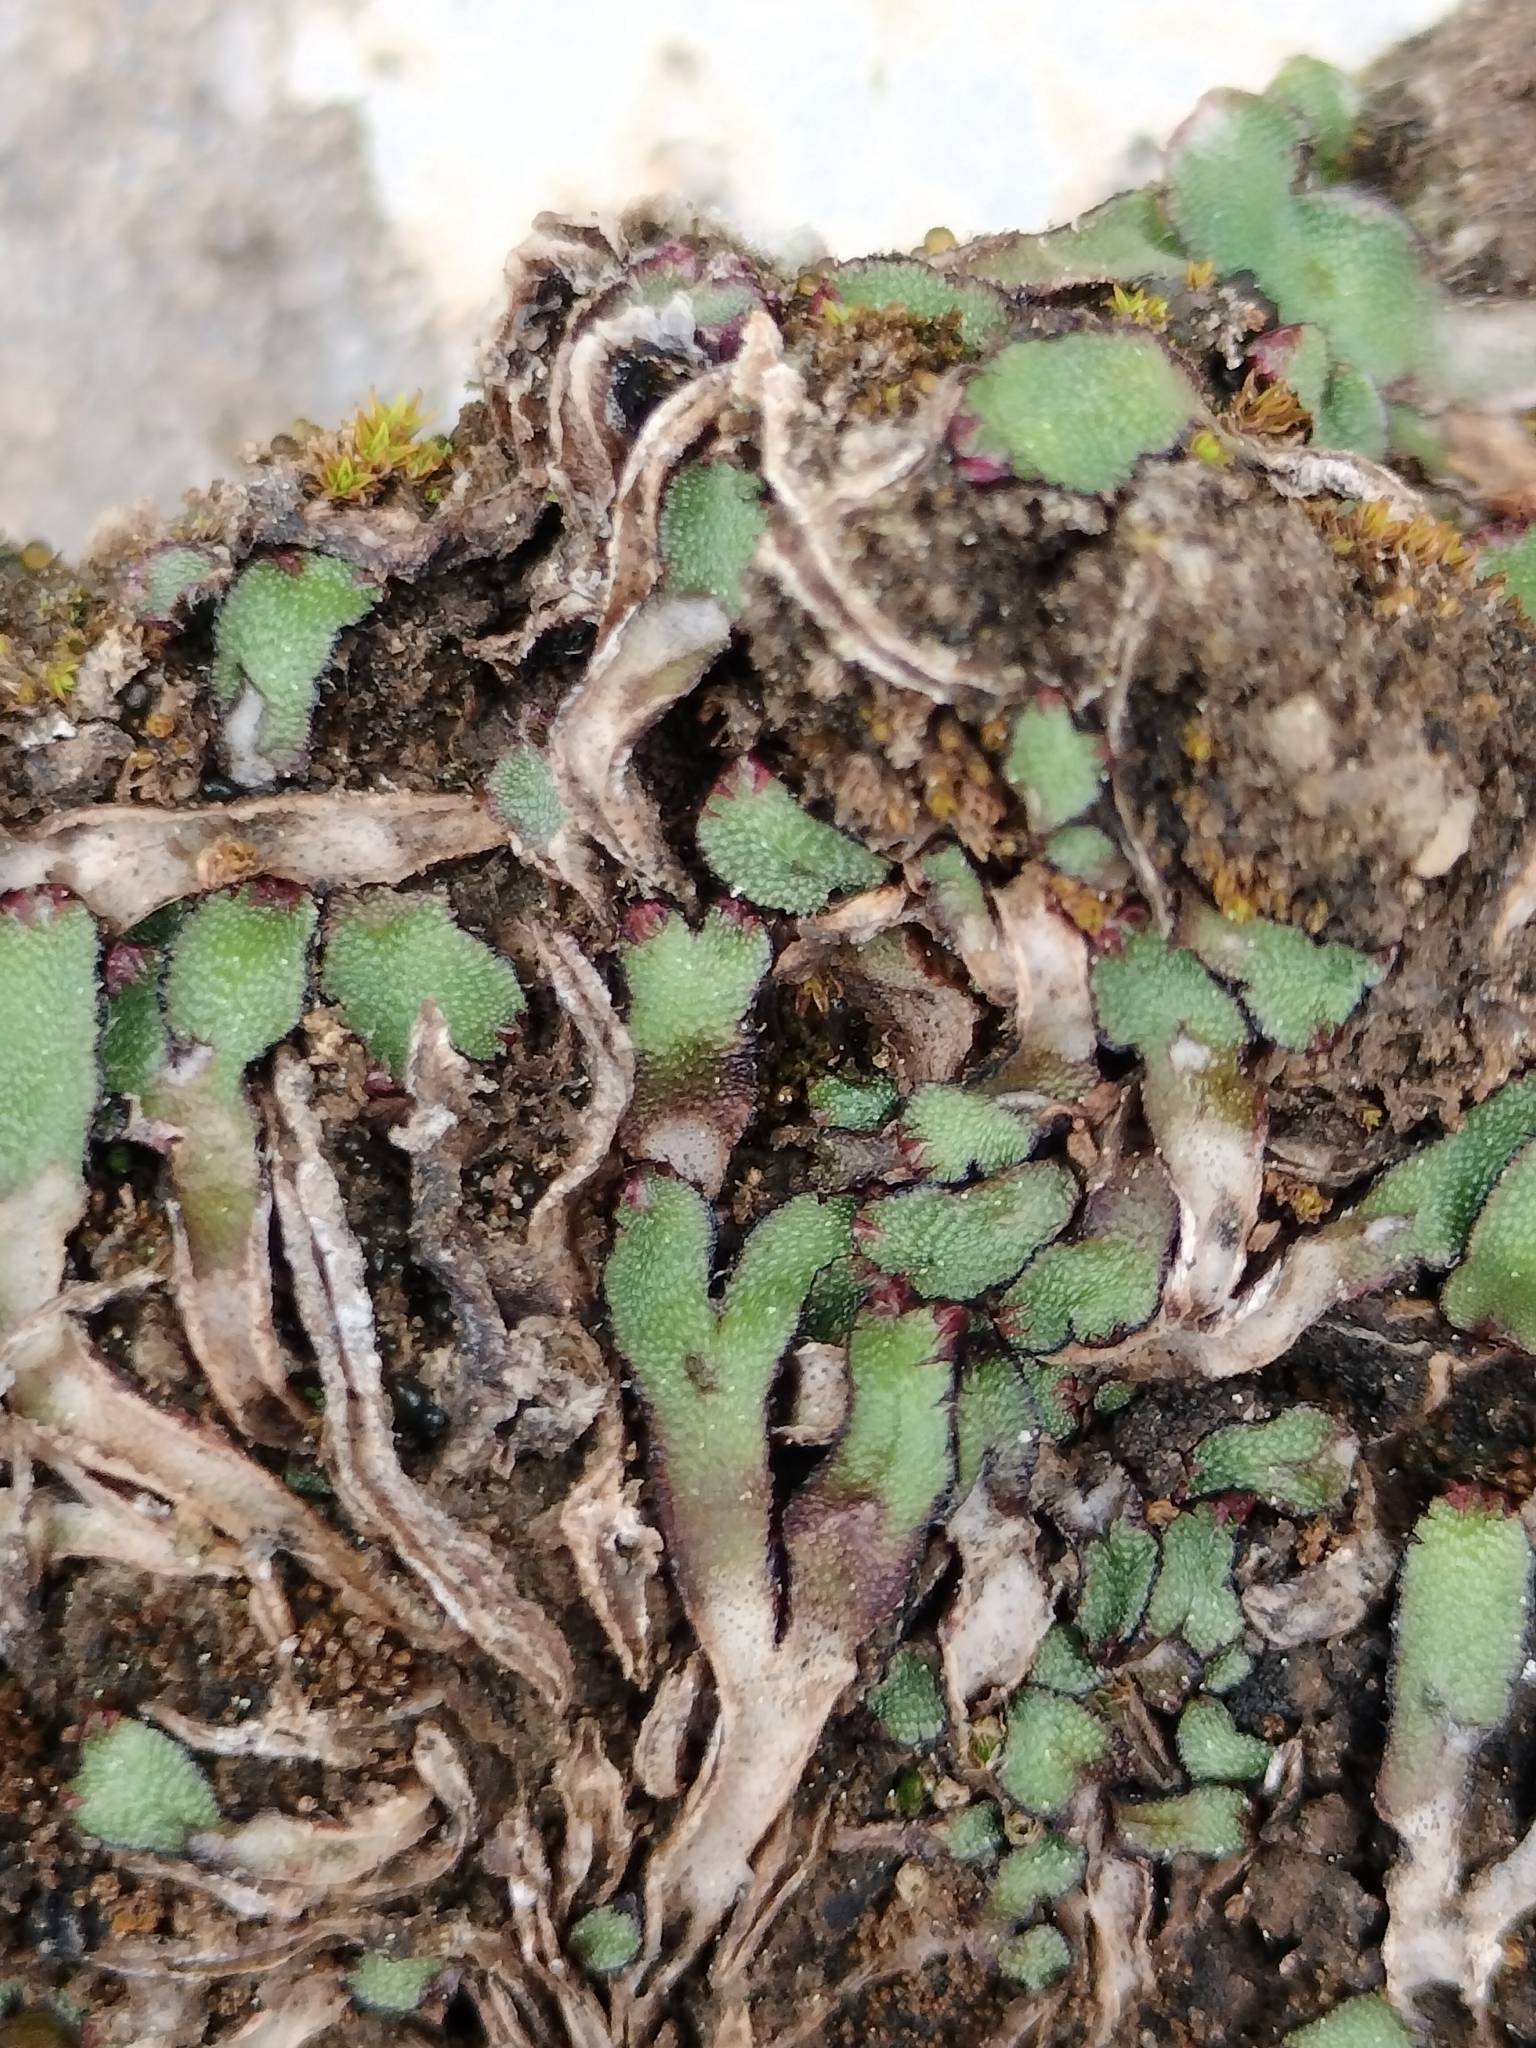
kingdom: Plantae
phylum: Marchantiophyta
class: Marchantiopsida
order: Marchantiales
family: Aytoniaceae
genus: Mannia
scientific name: Mannia fragrans
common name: Fragrant macewort
